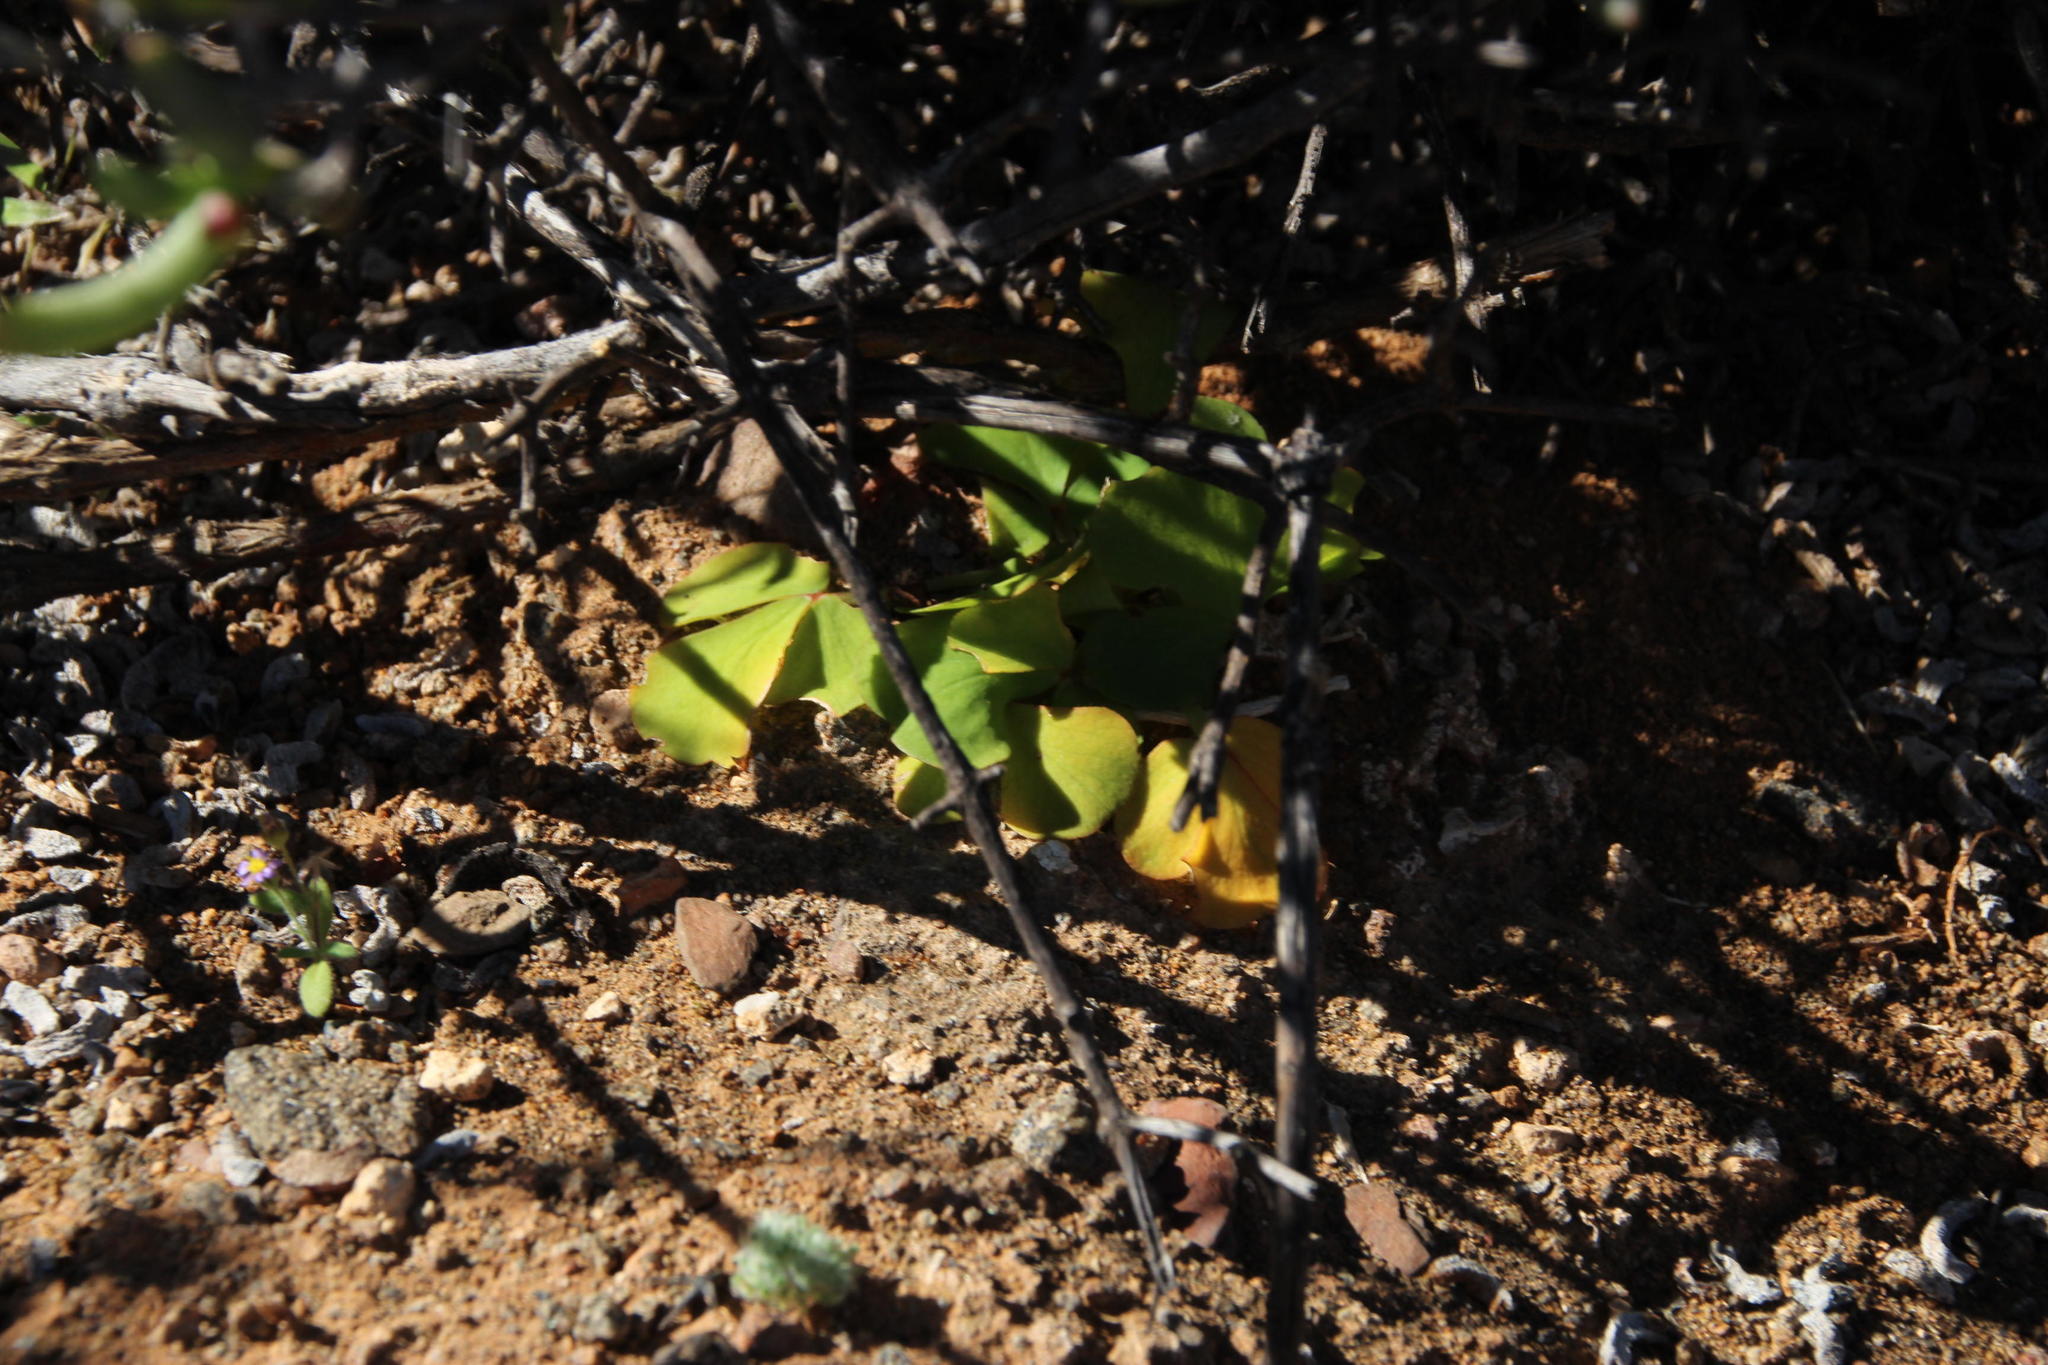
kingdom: Plantae
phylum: Tracheophyta
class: Liliopsida
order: Asparagales
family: Asparagaceae
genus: Asparagus
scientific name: Asparagus multituberosus
